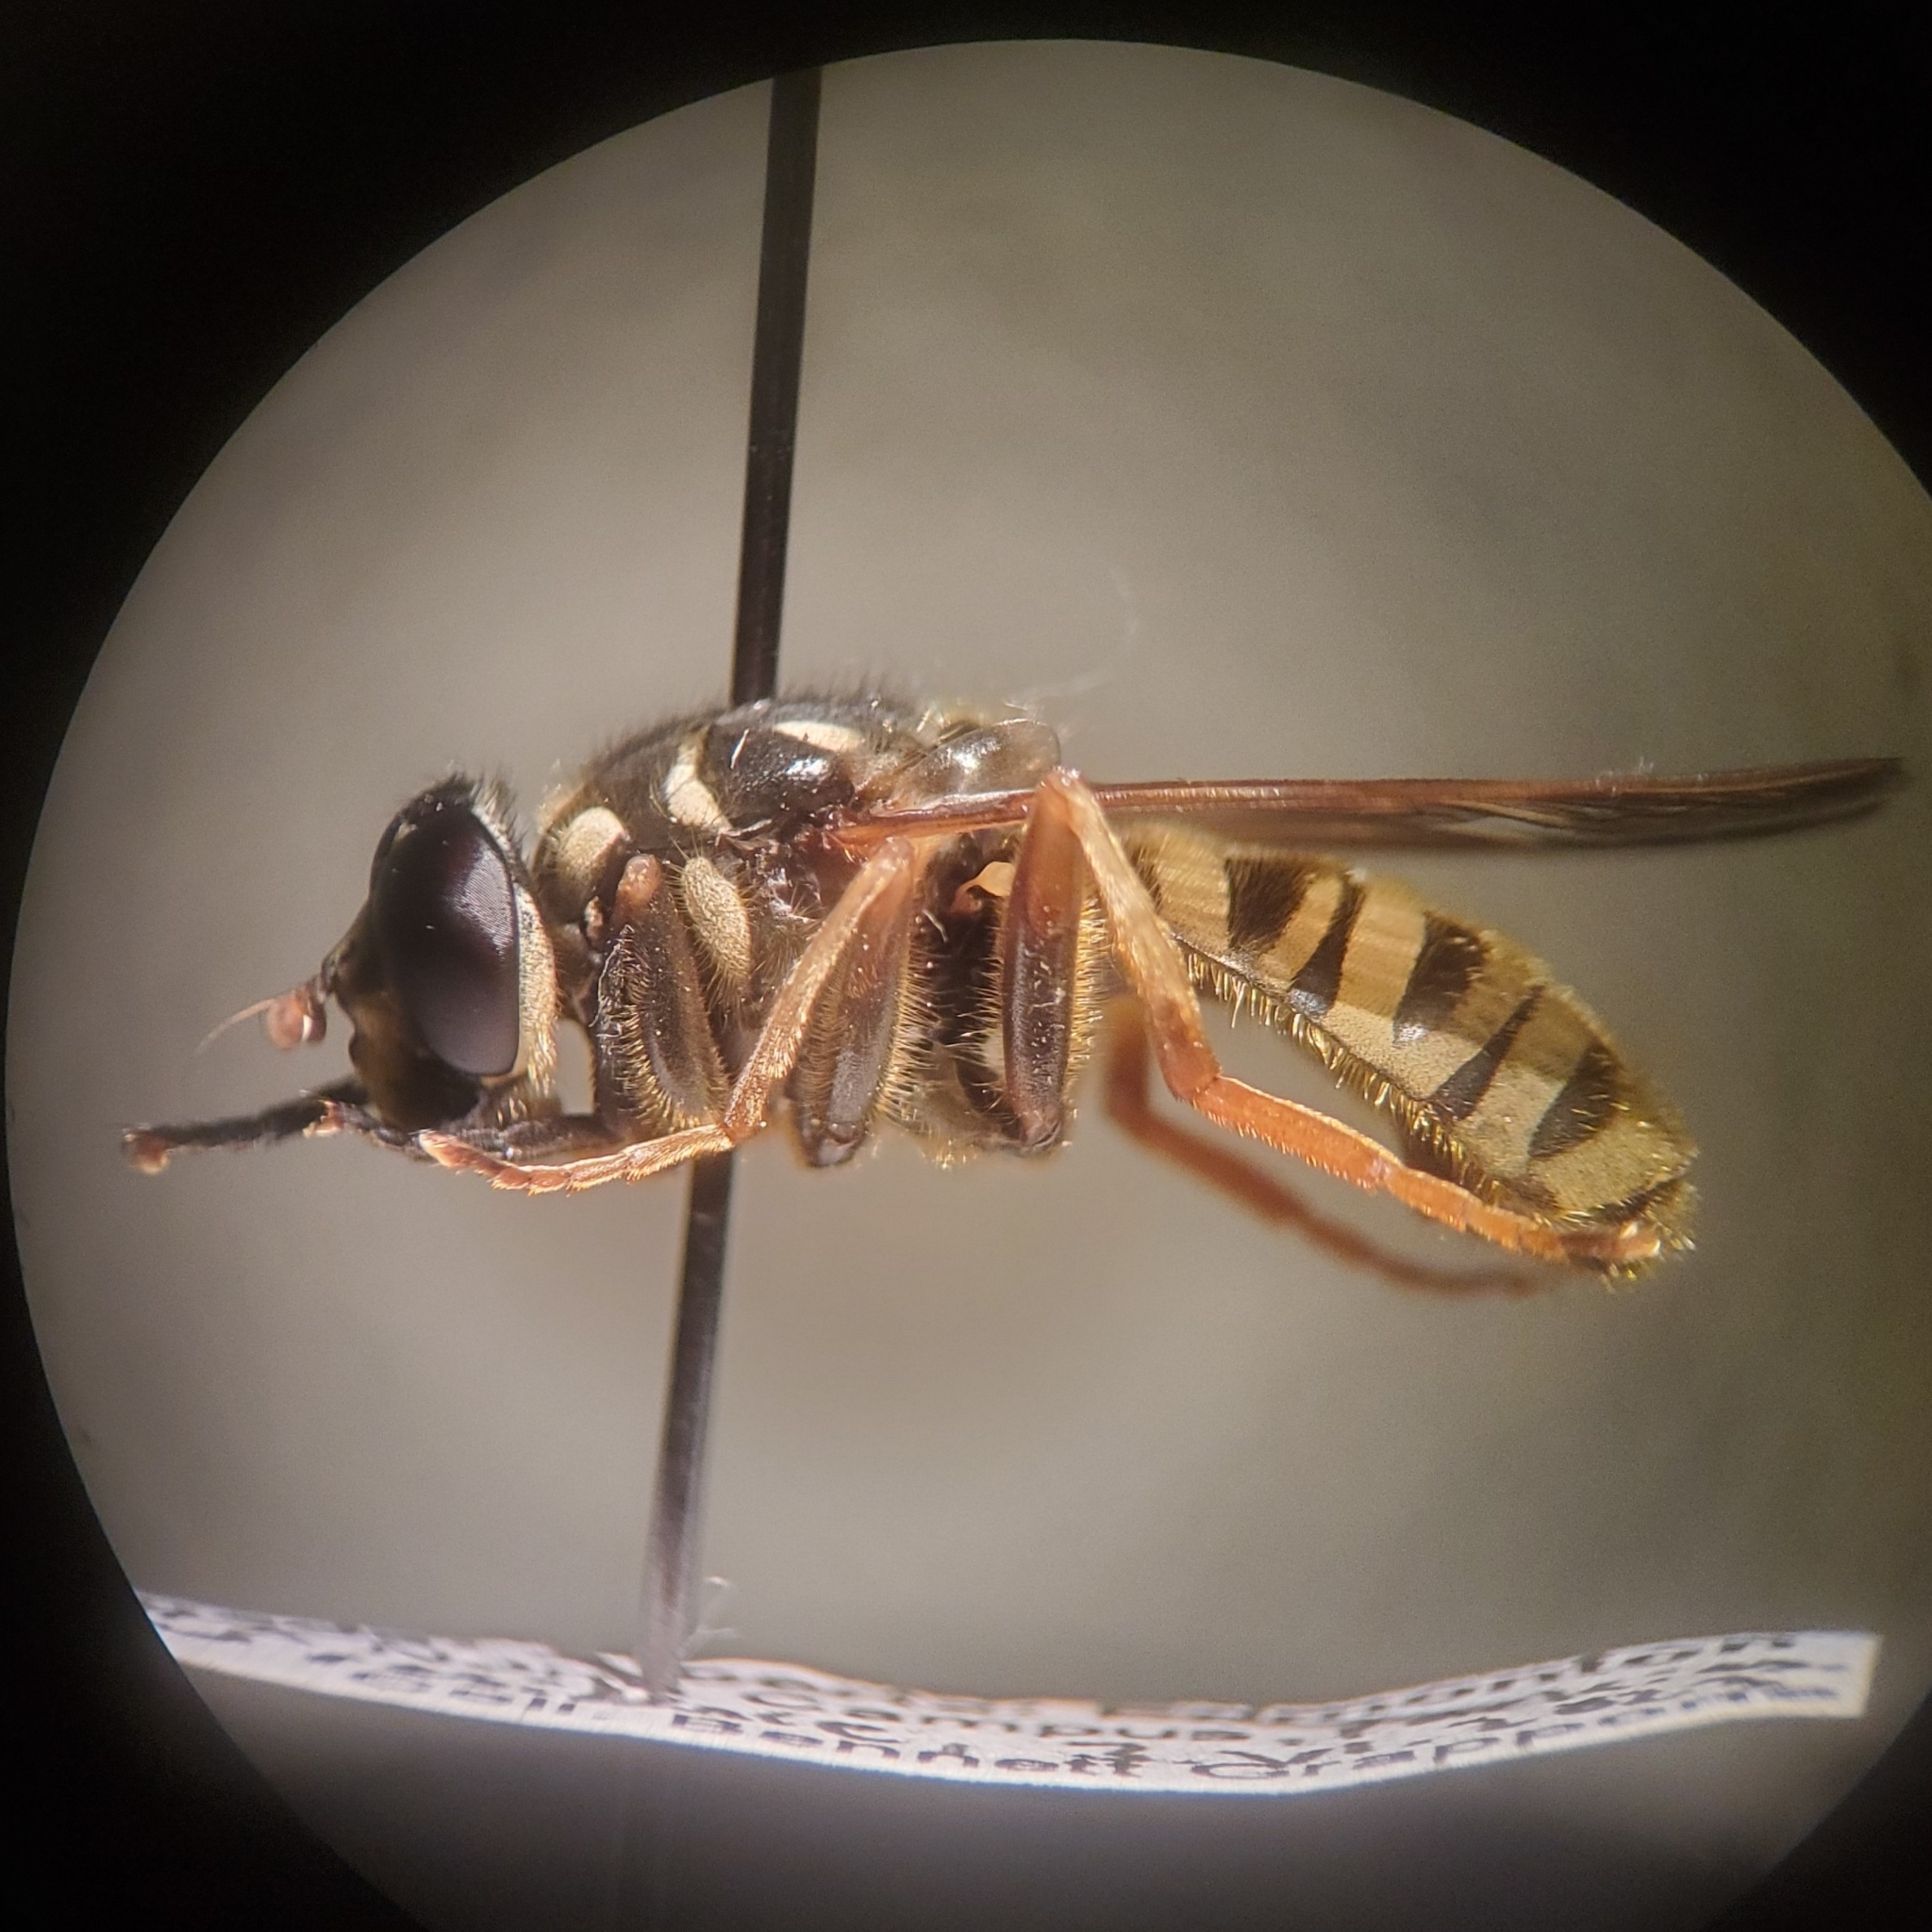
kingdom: Animalia
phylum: Arthropoda
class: Insecta
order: Diptera
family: Syrphidae
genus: Temnostoma
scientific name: Temnostoma excentricum
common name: Black-spotted falsehorn
